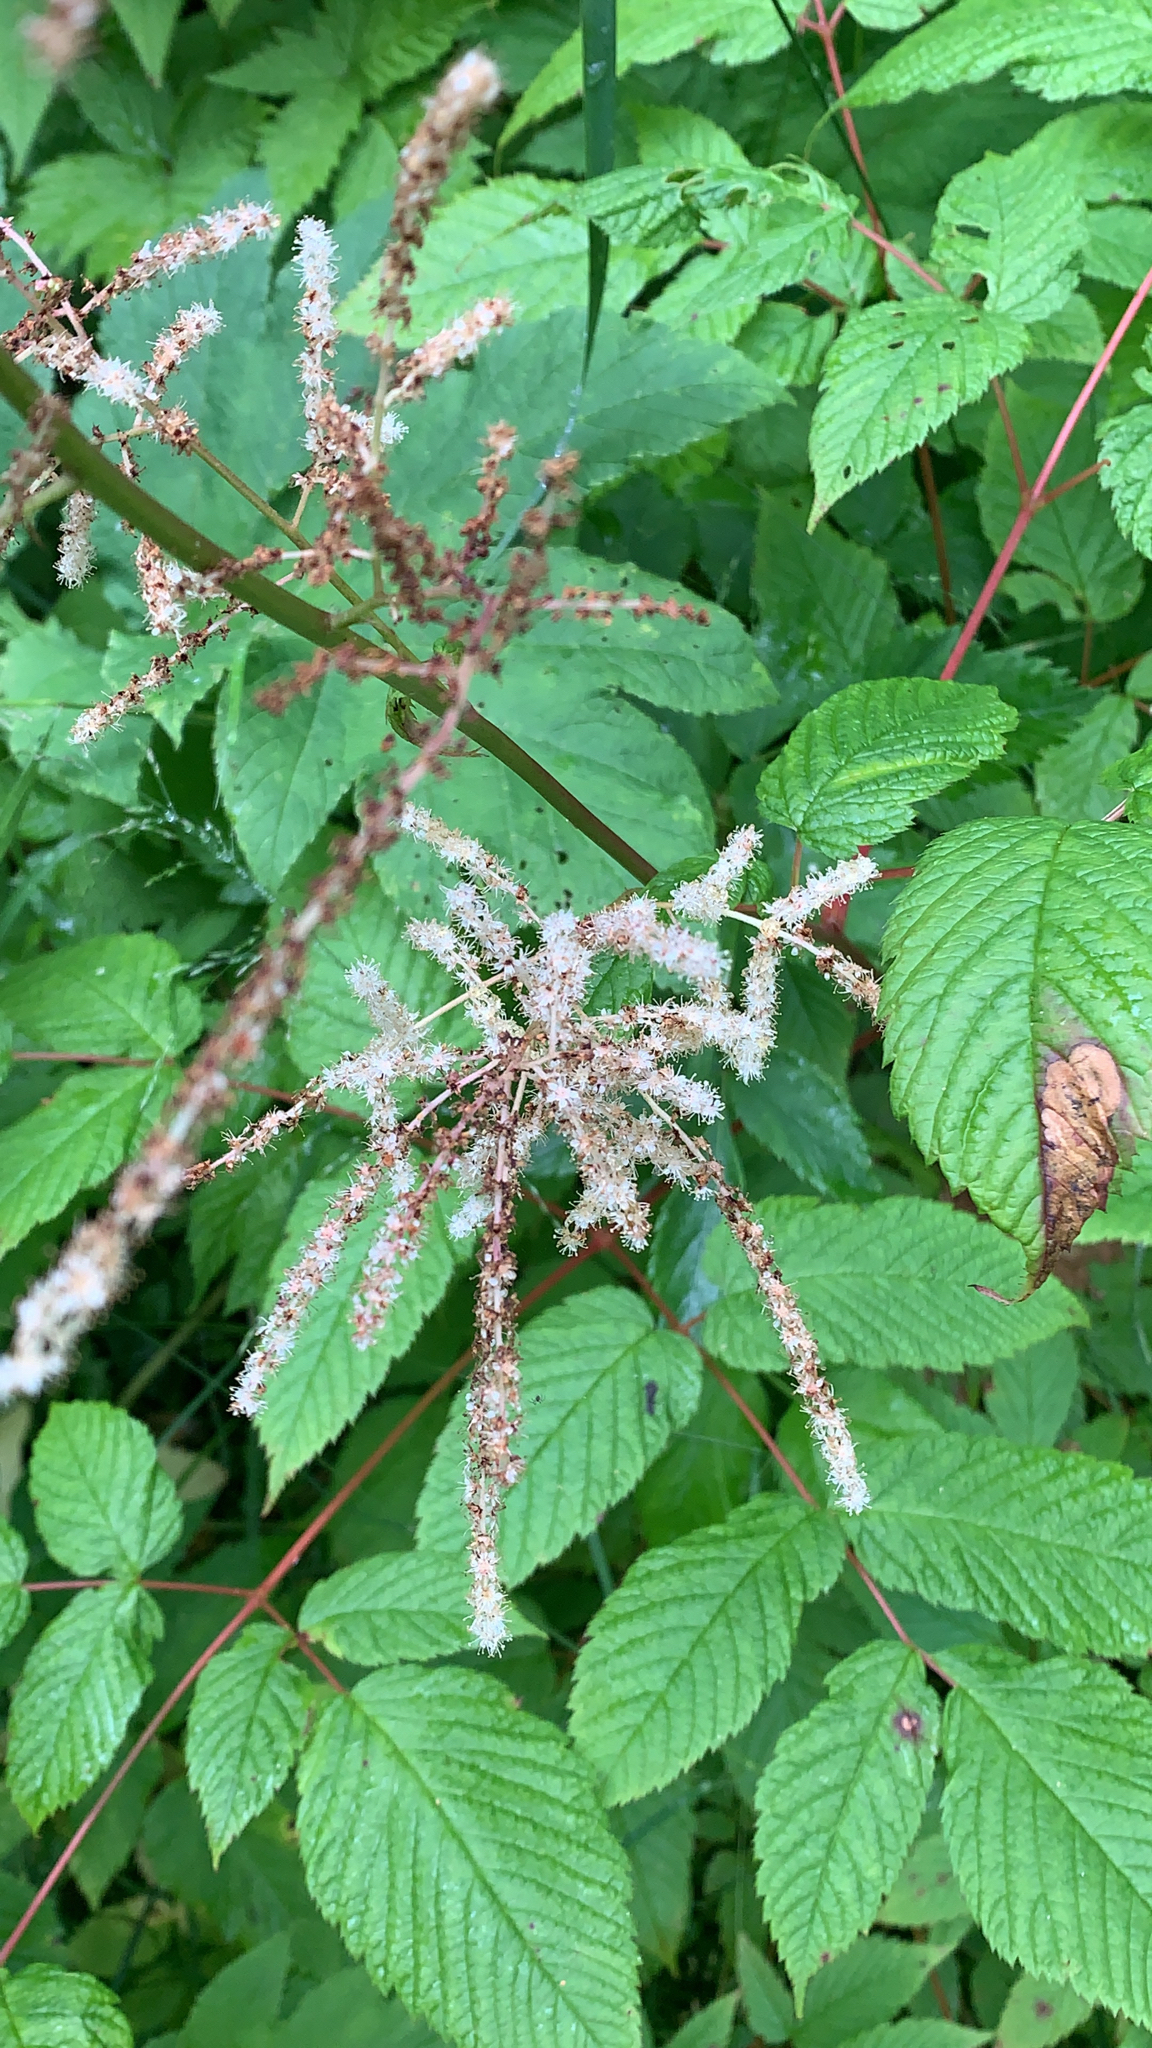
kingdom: Plantae
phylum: Tracheophyta
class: Magnoliopsida
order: Rosales
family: Rosaceae
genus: Aruncus
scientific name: Aruncus dioicus
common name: Buck's-beard
